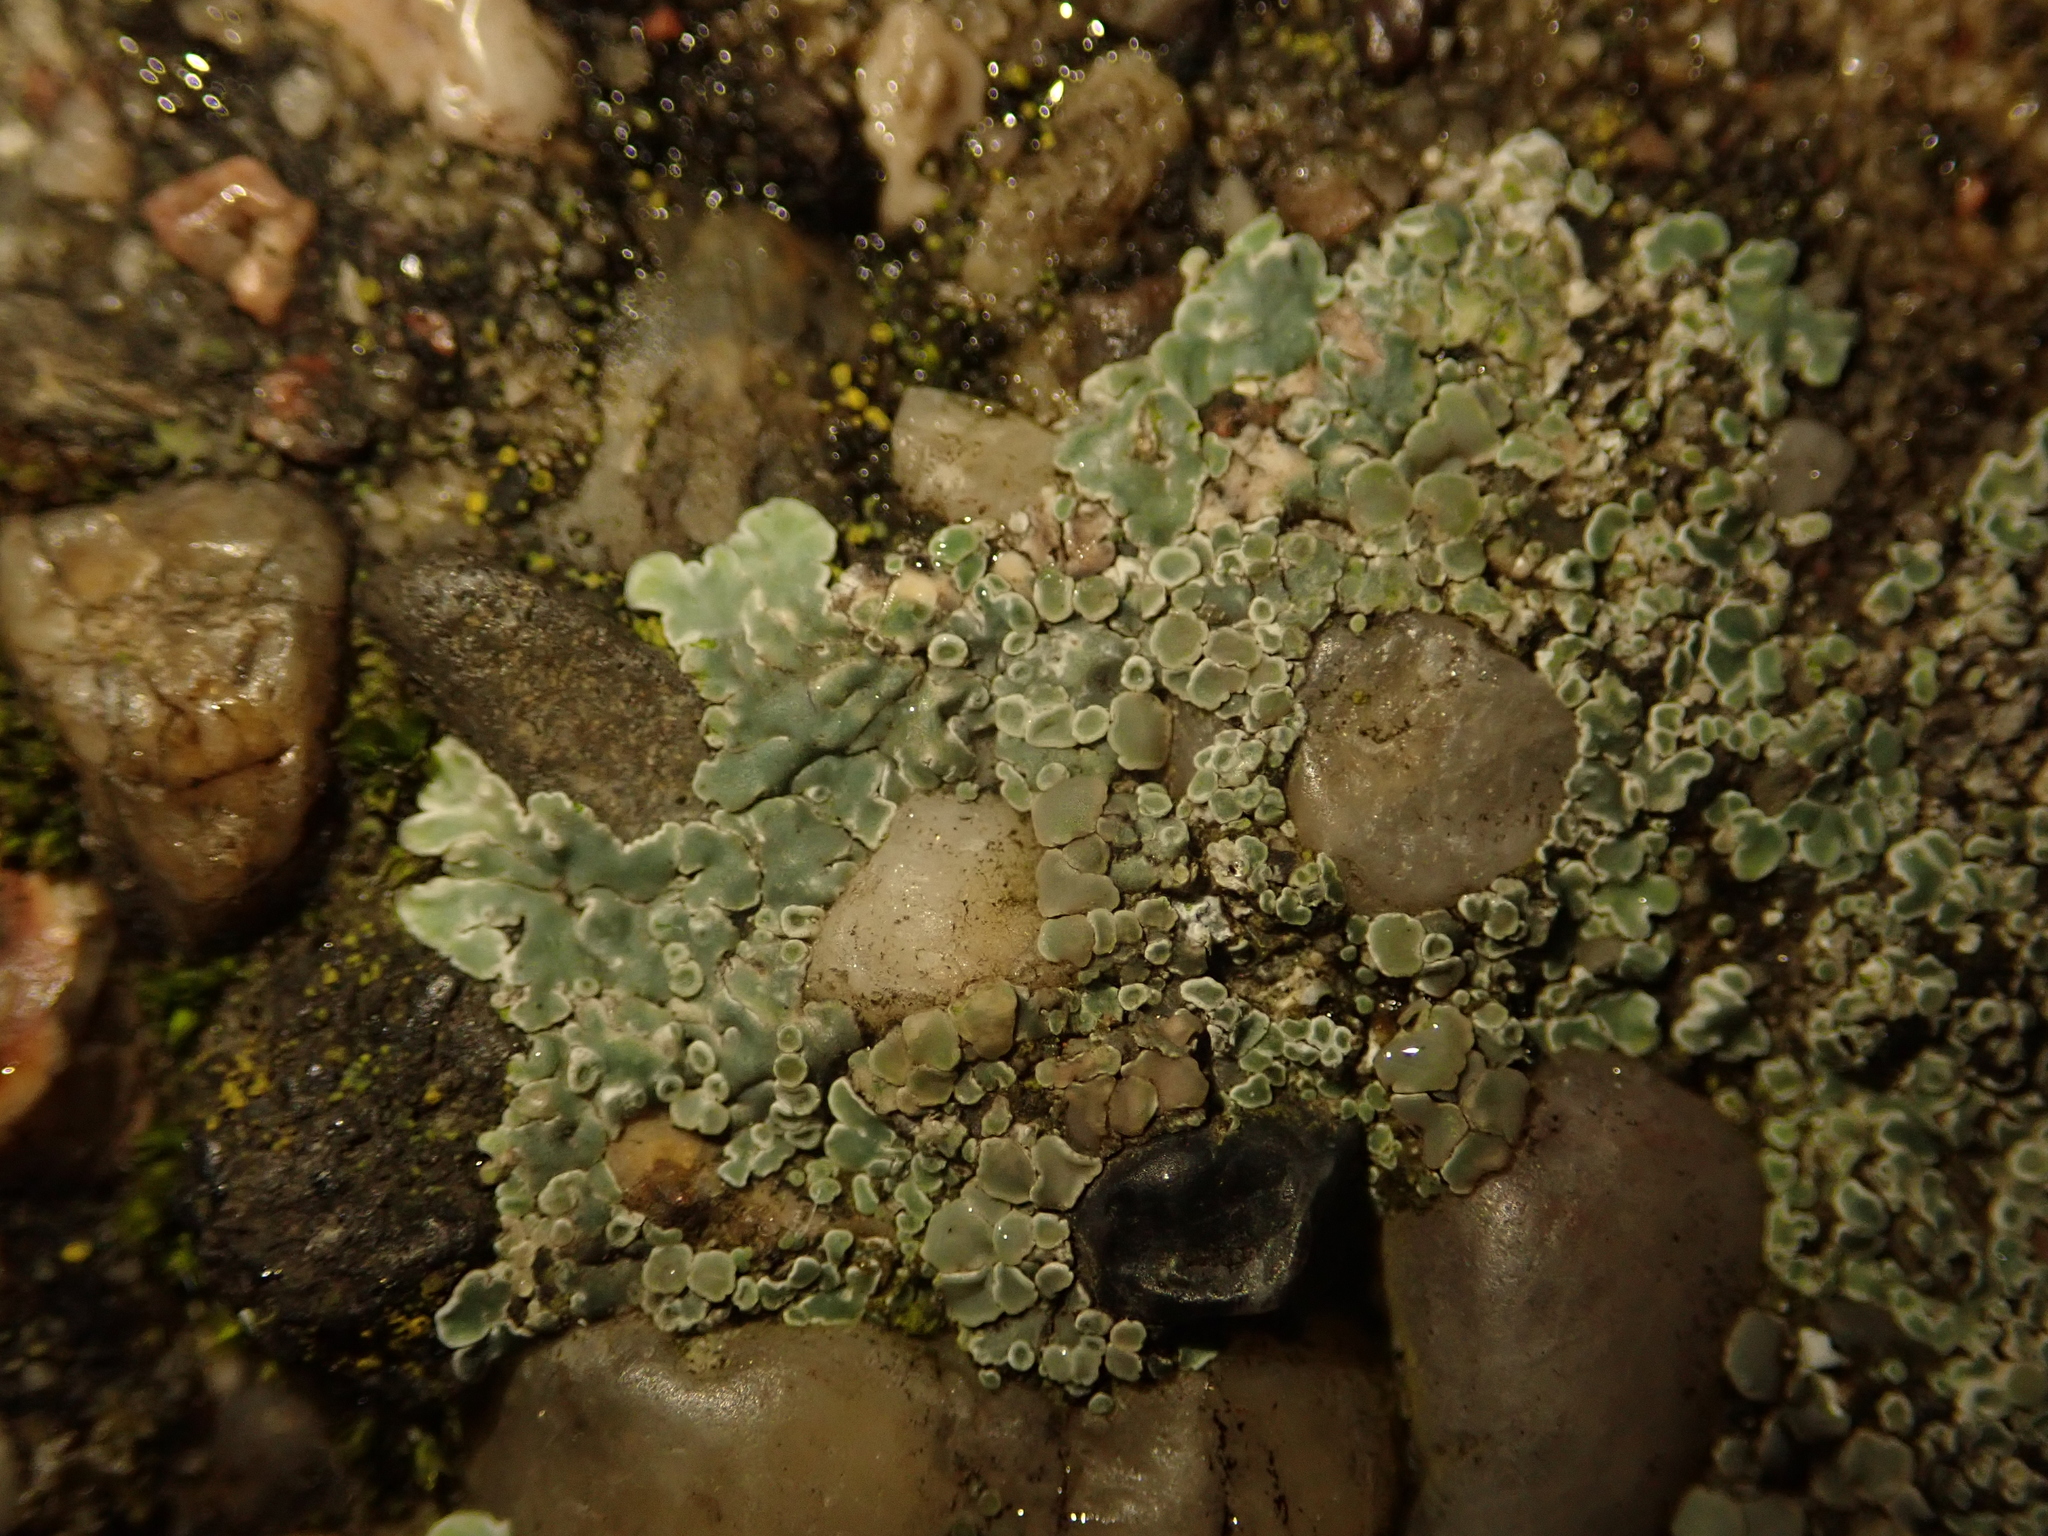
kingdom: Fungi
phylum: Ascomycota
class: Lecanoromycetes
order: Lecanorales
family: Lecanoraceae
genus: Protoparmeliopsis
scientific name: Protoparmeliopsis muralis
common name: Stonewall rim lichen
